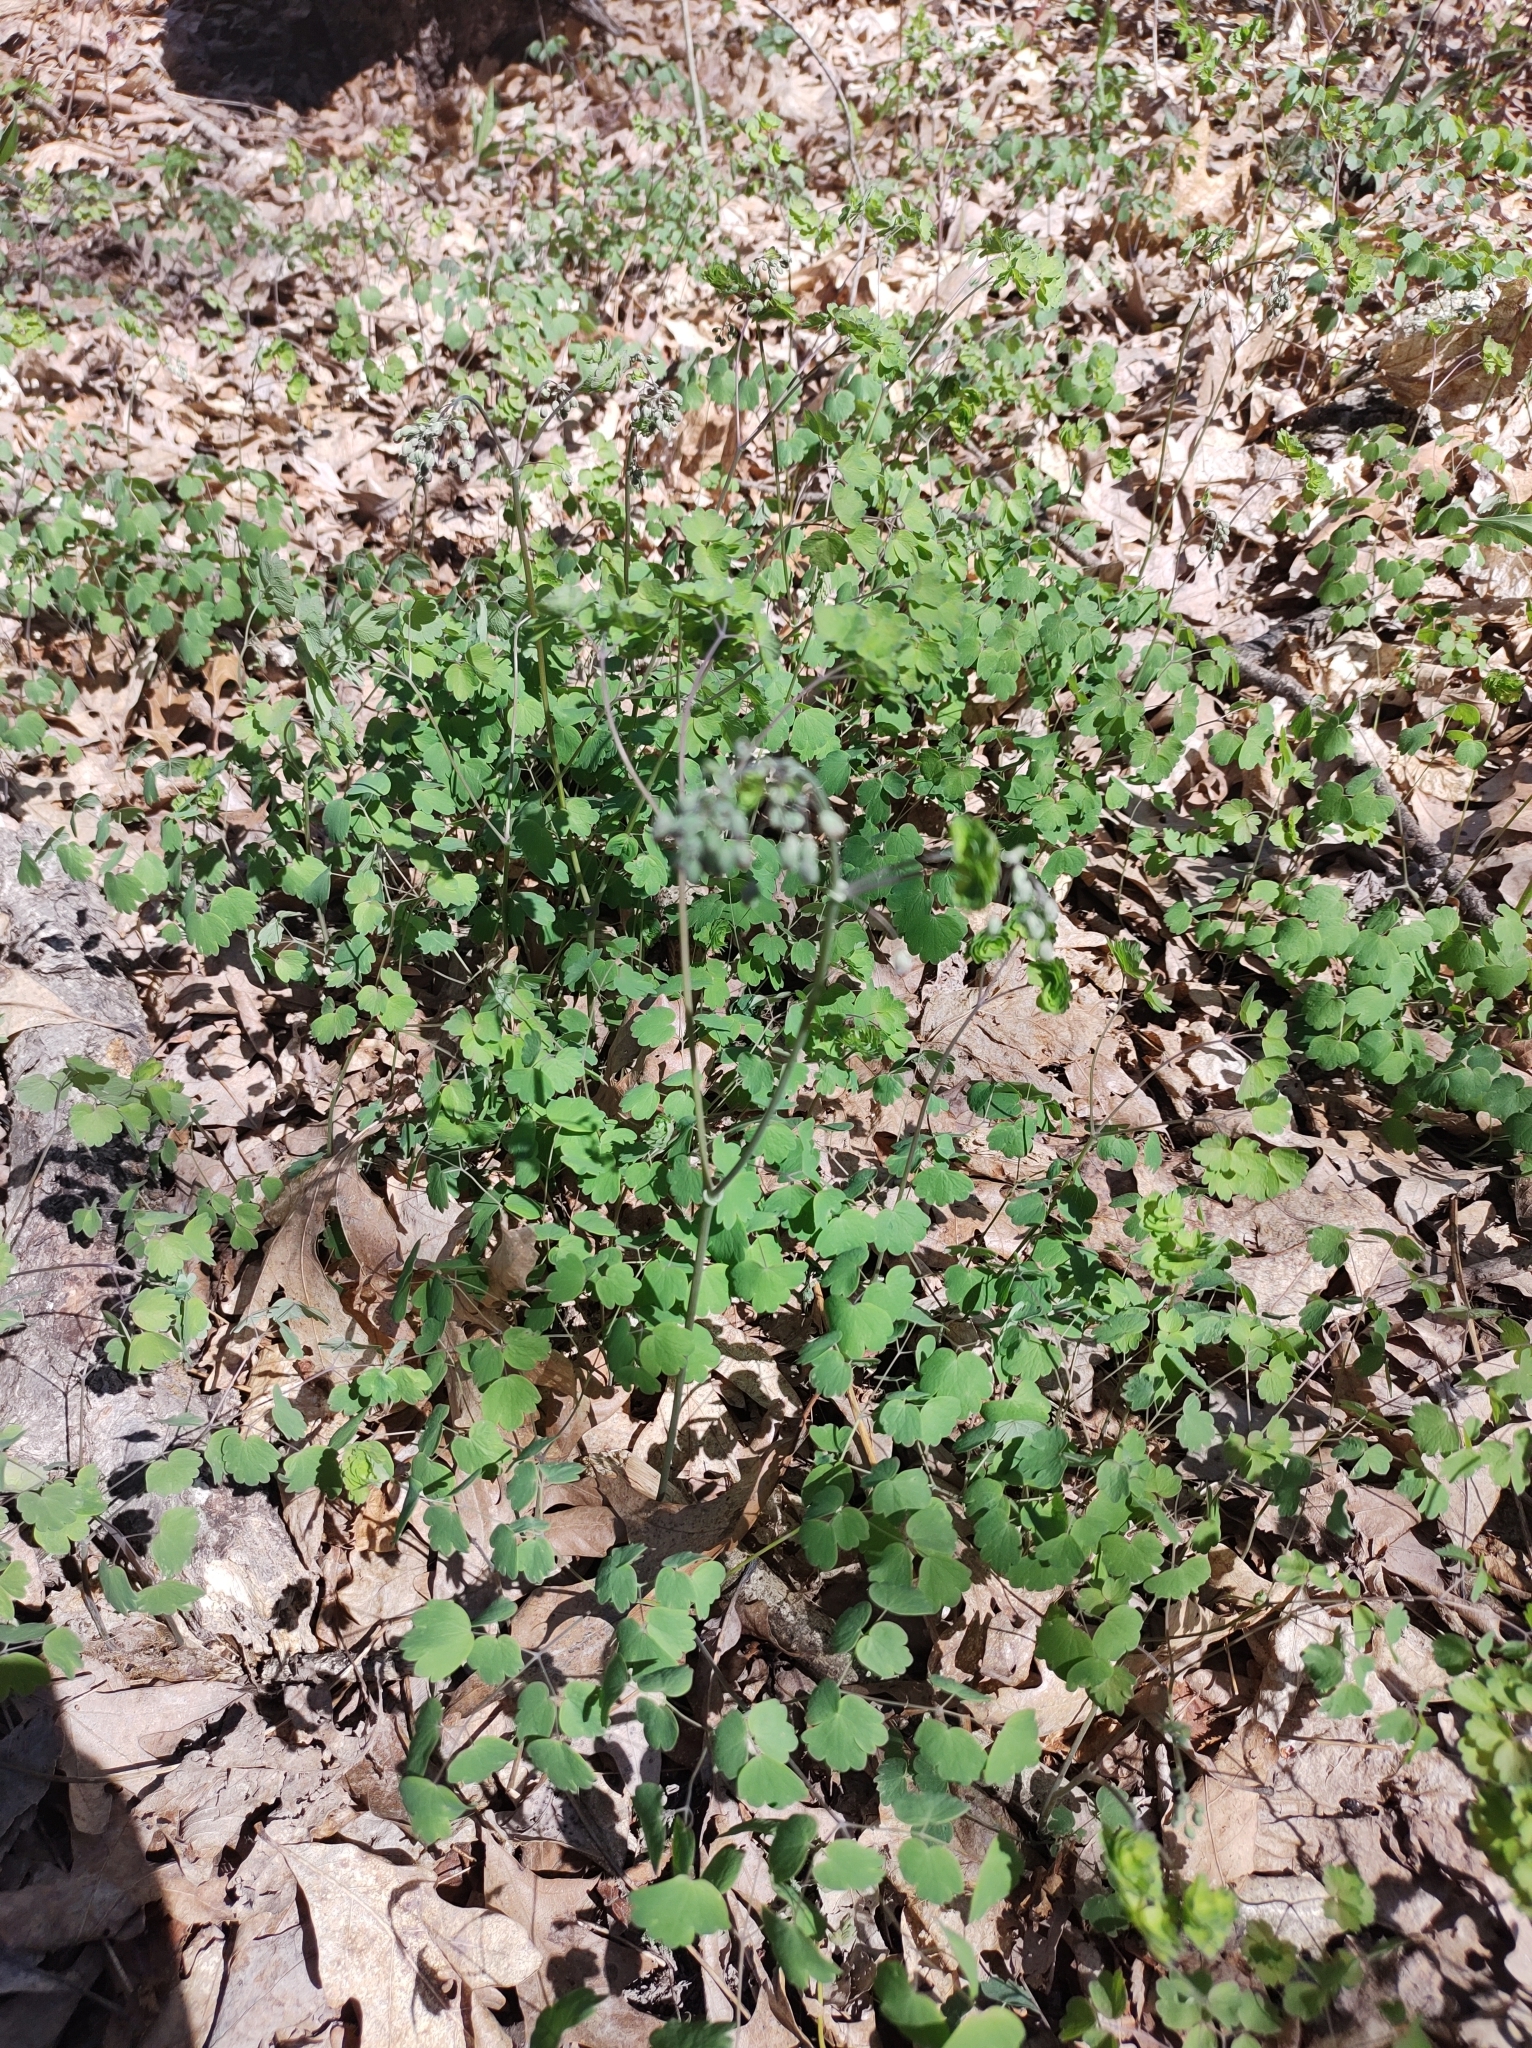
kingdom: Plantae
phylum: Tracheophyta
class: Magnoliopsida
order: Ranunculales
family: Ranunculaceae
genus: Thalictrum
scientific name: Thalictrum dioicum
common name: Early meadow-rue
